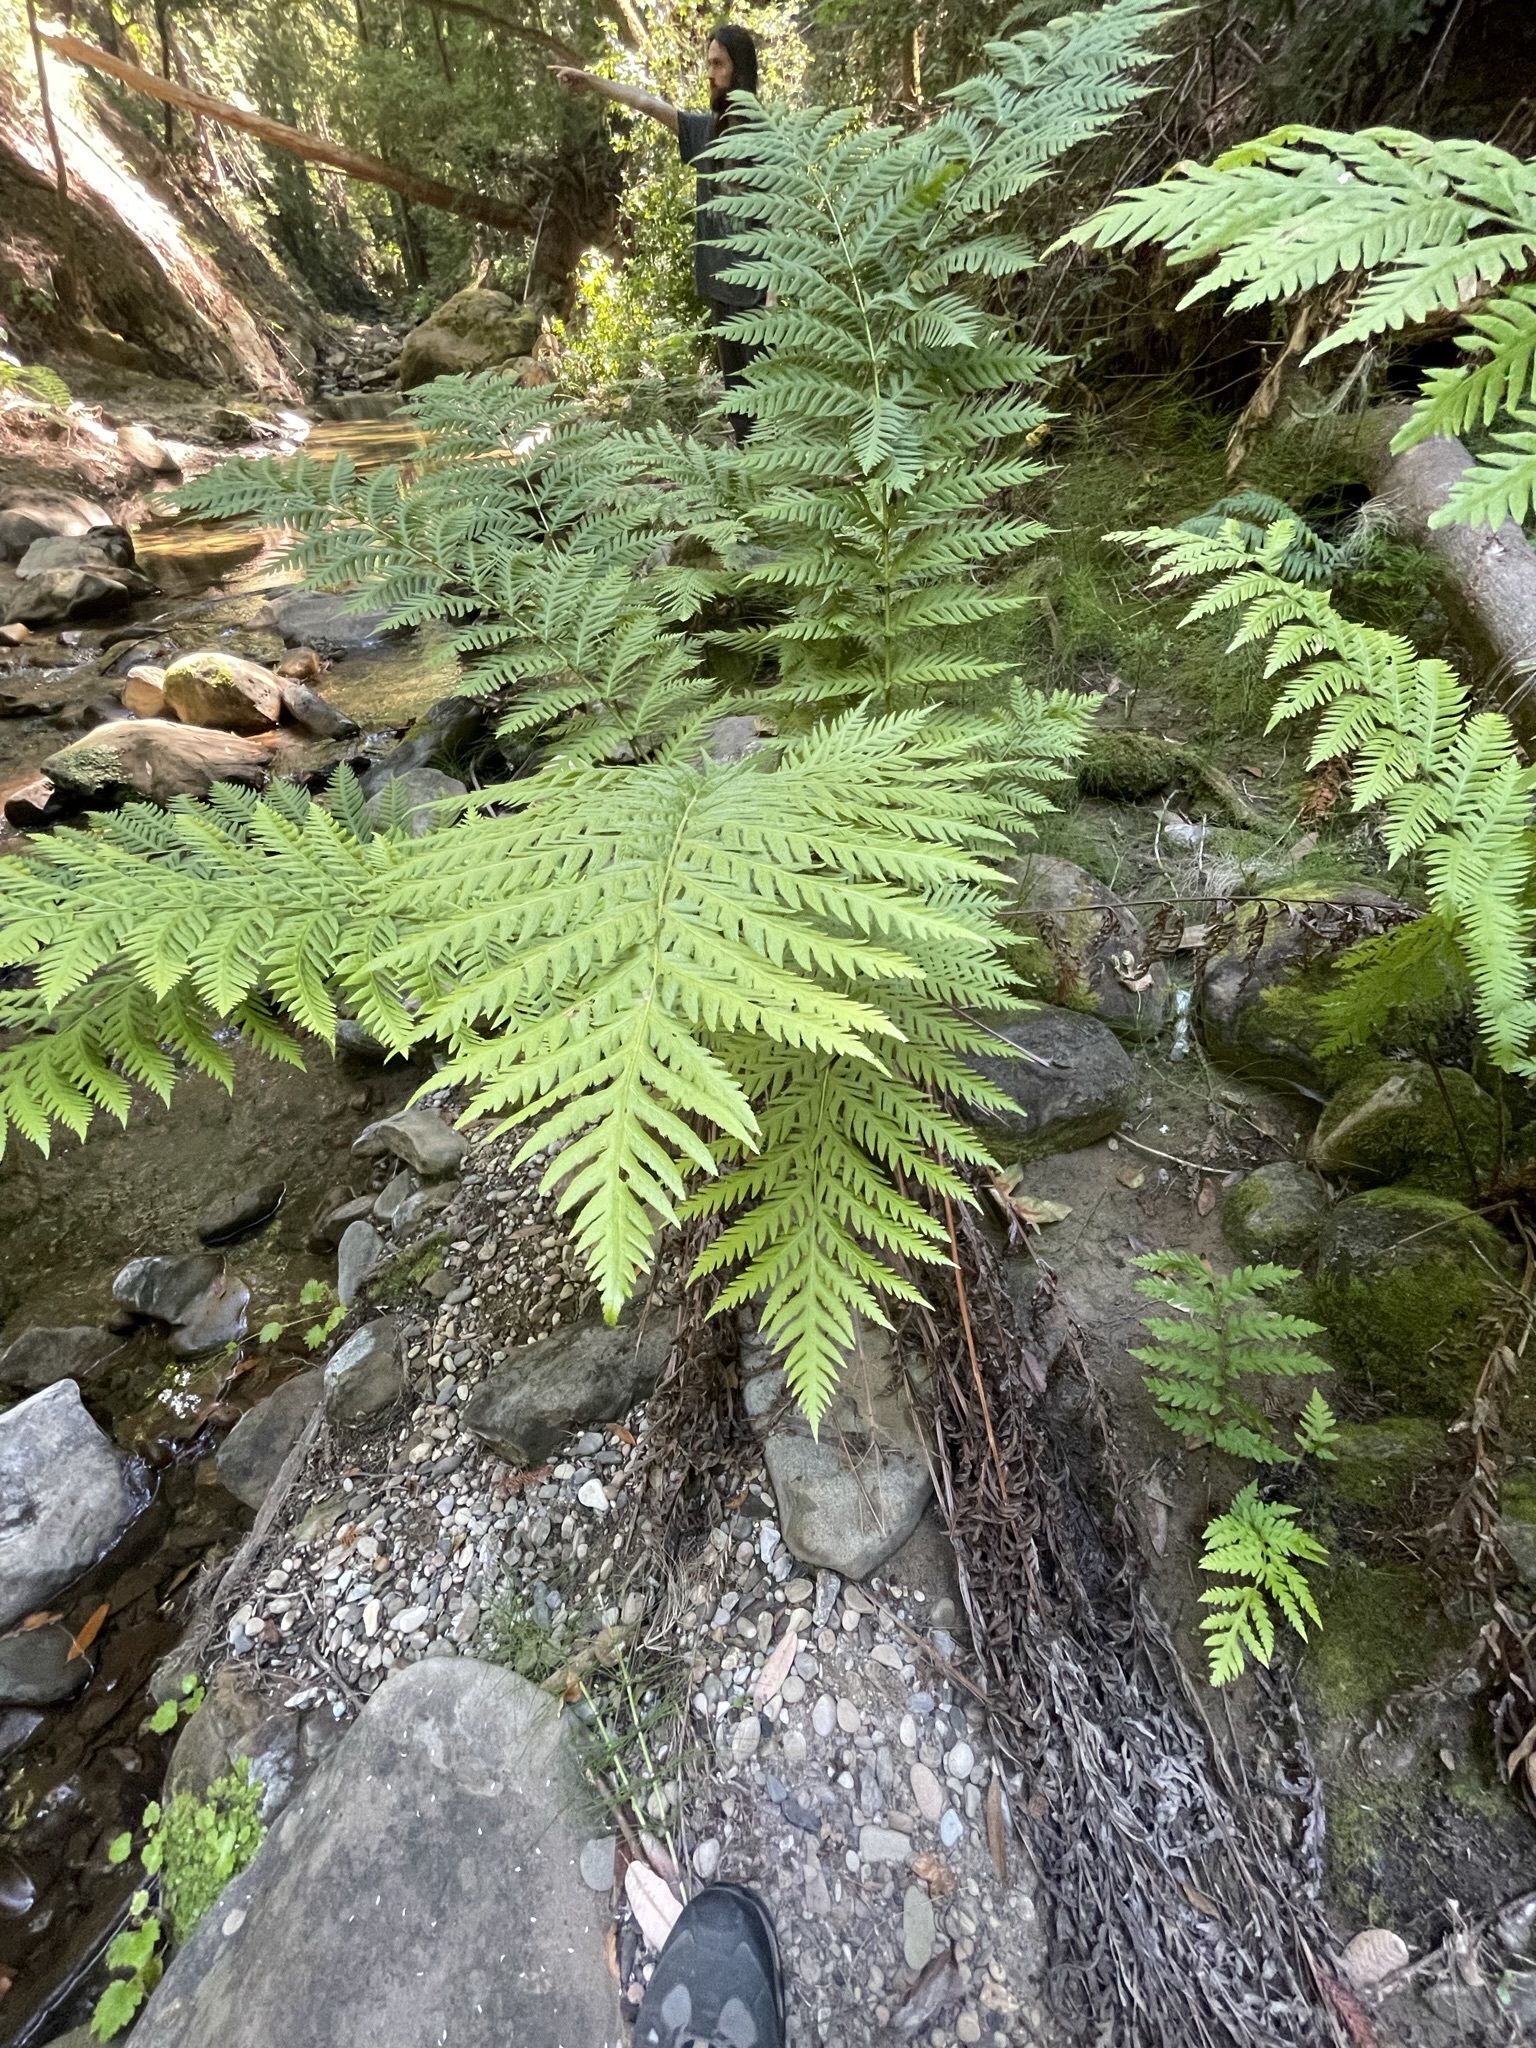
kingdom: Plantae
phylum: Tracheophyta
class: Polypodiopsida
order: Polypodiales
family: Blechnaceae
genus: Woodwardia
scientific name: Woodwardia fimbriata
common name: Giant chain fern
